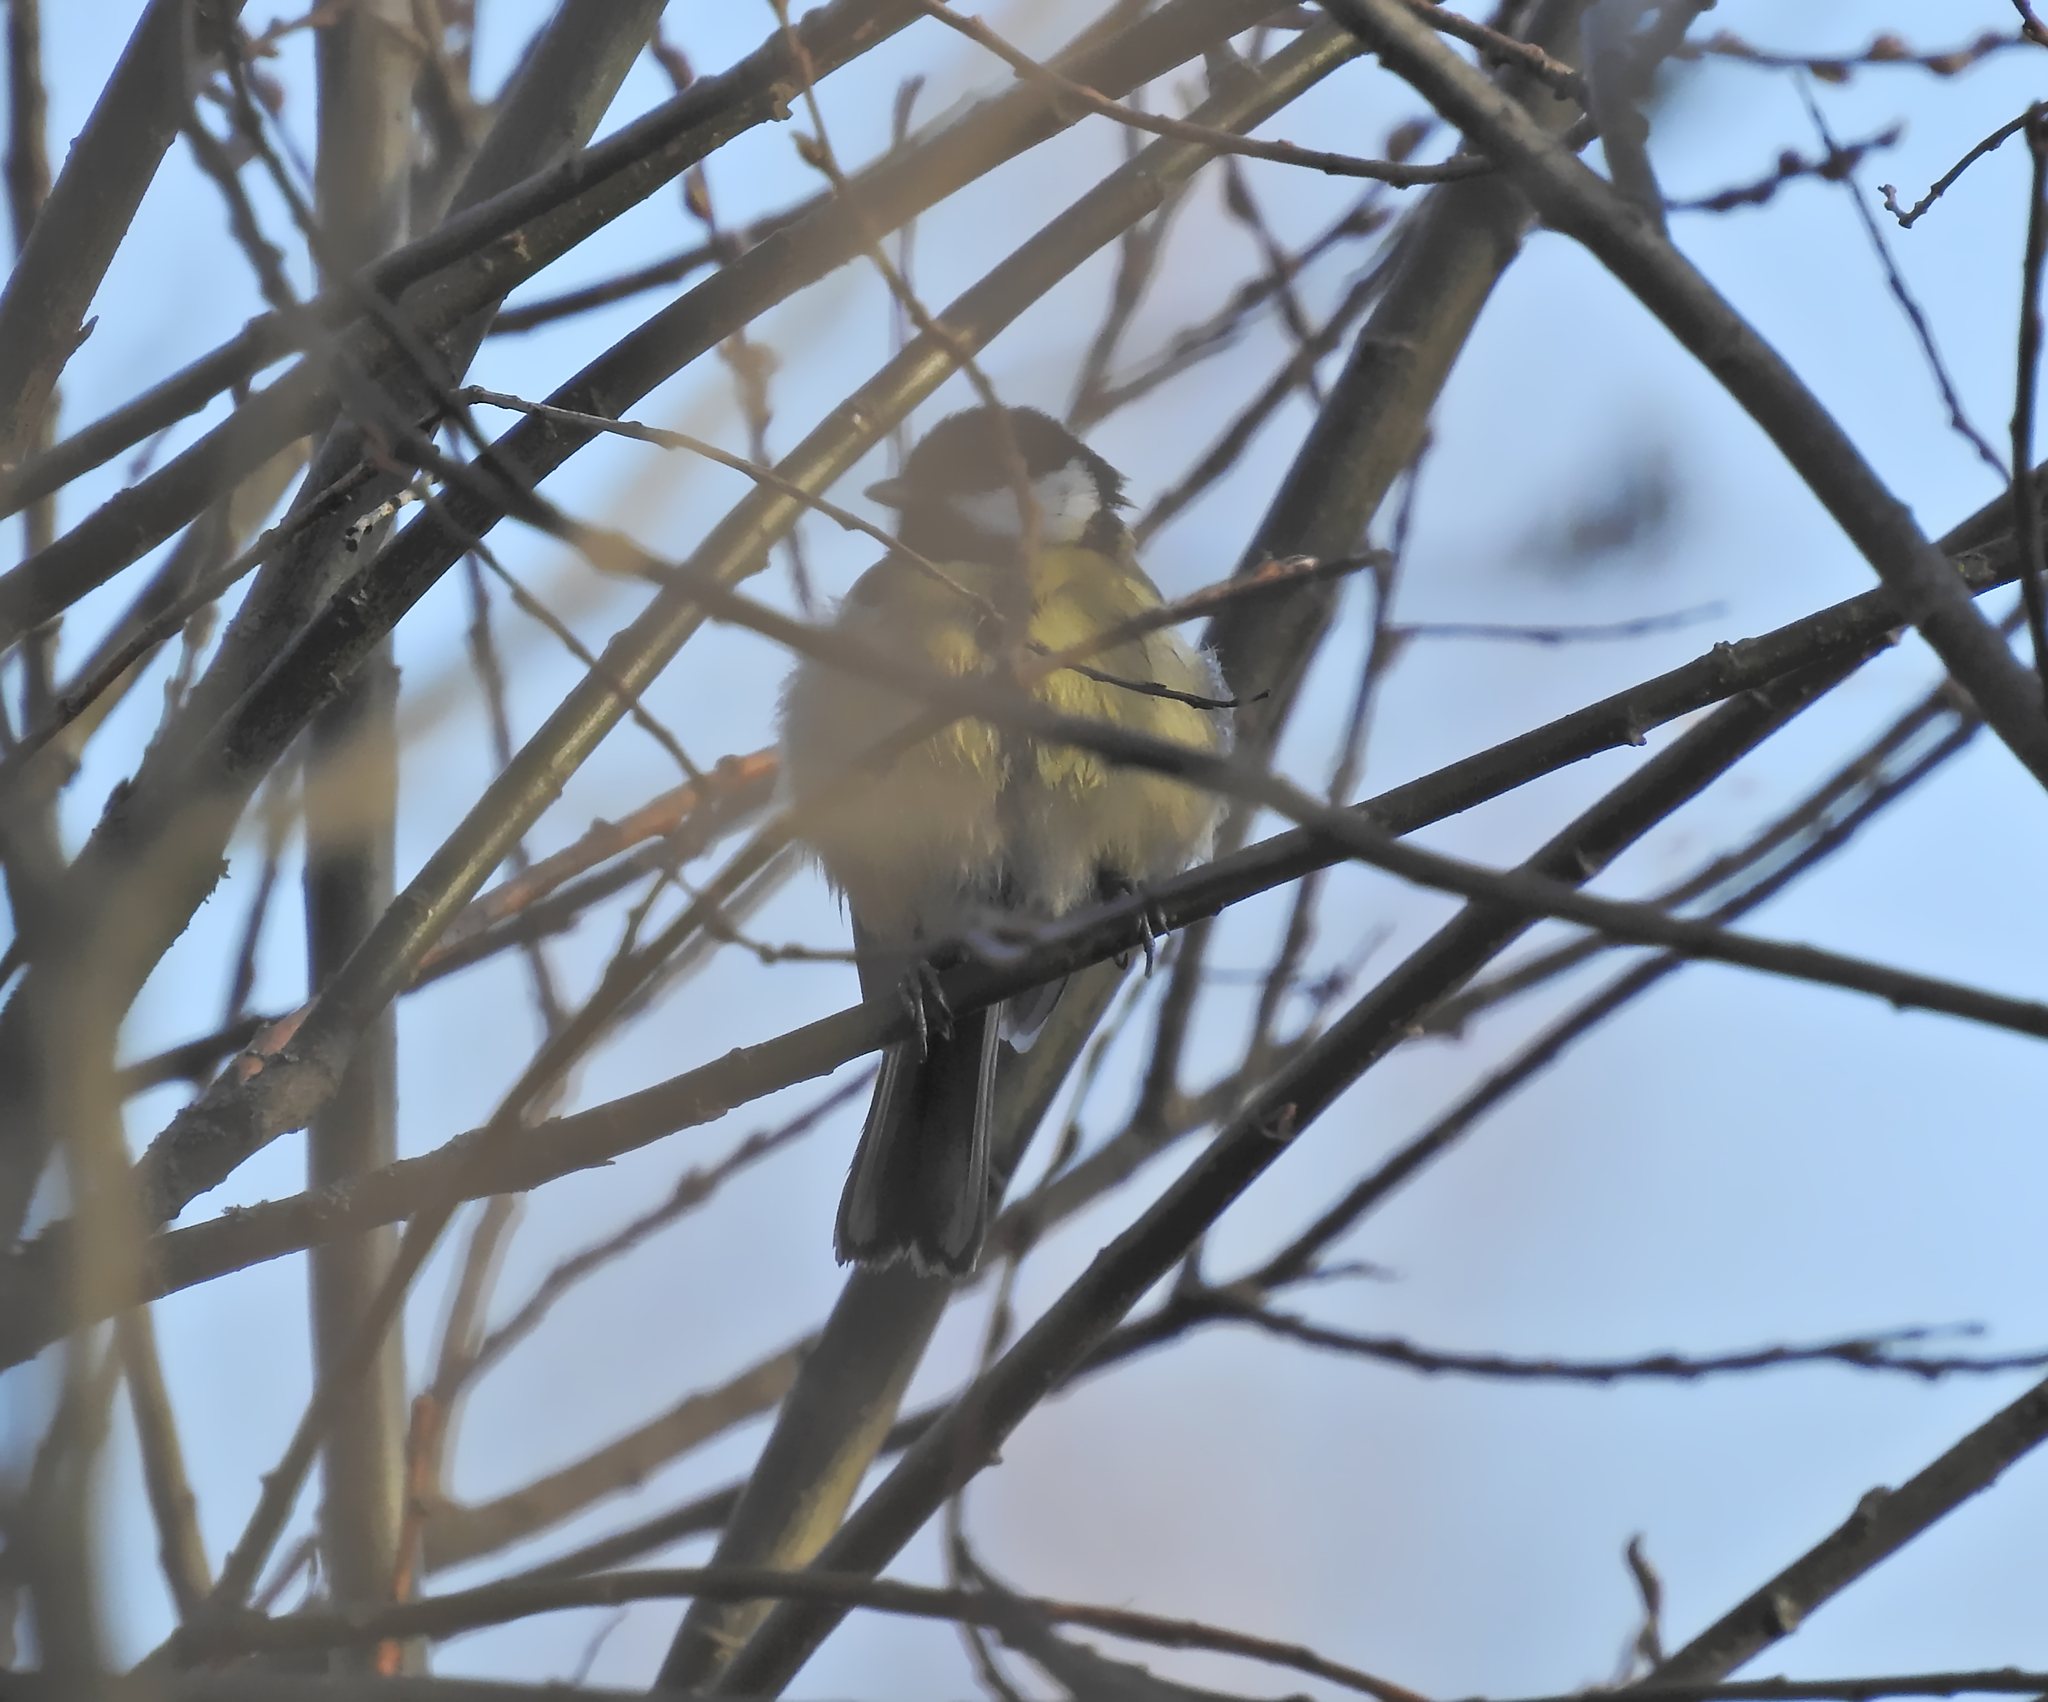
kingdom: Animalia
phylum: Chordata
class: Aves
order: Passeriformes
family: Paridae
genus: Parus
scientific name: Parus major
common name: Great tit
